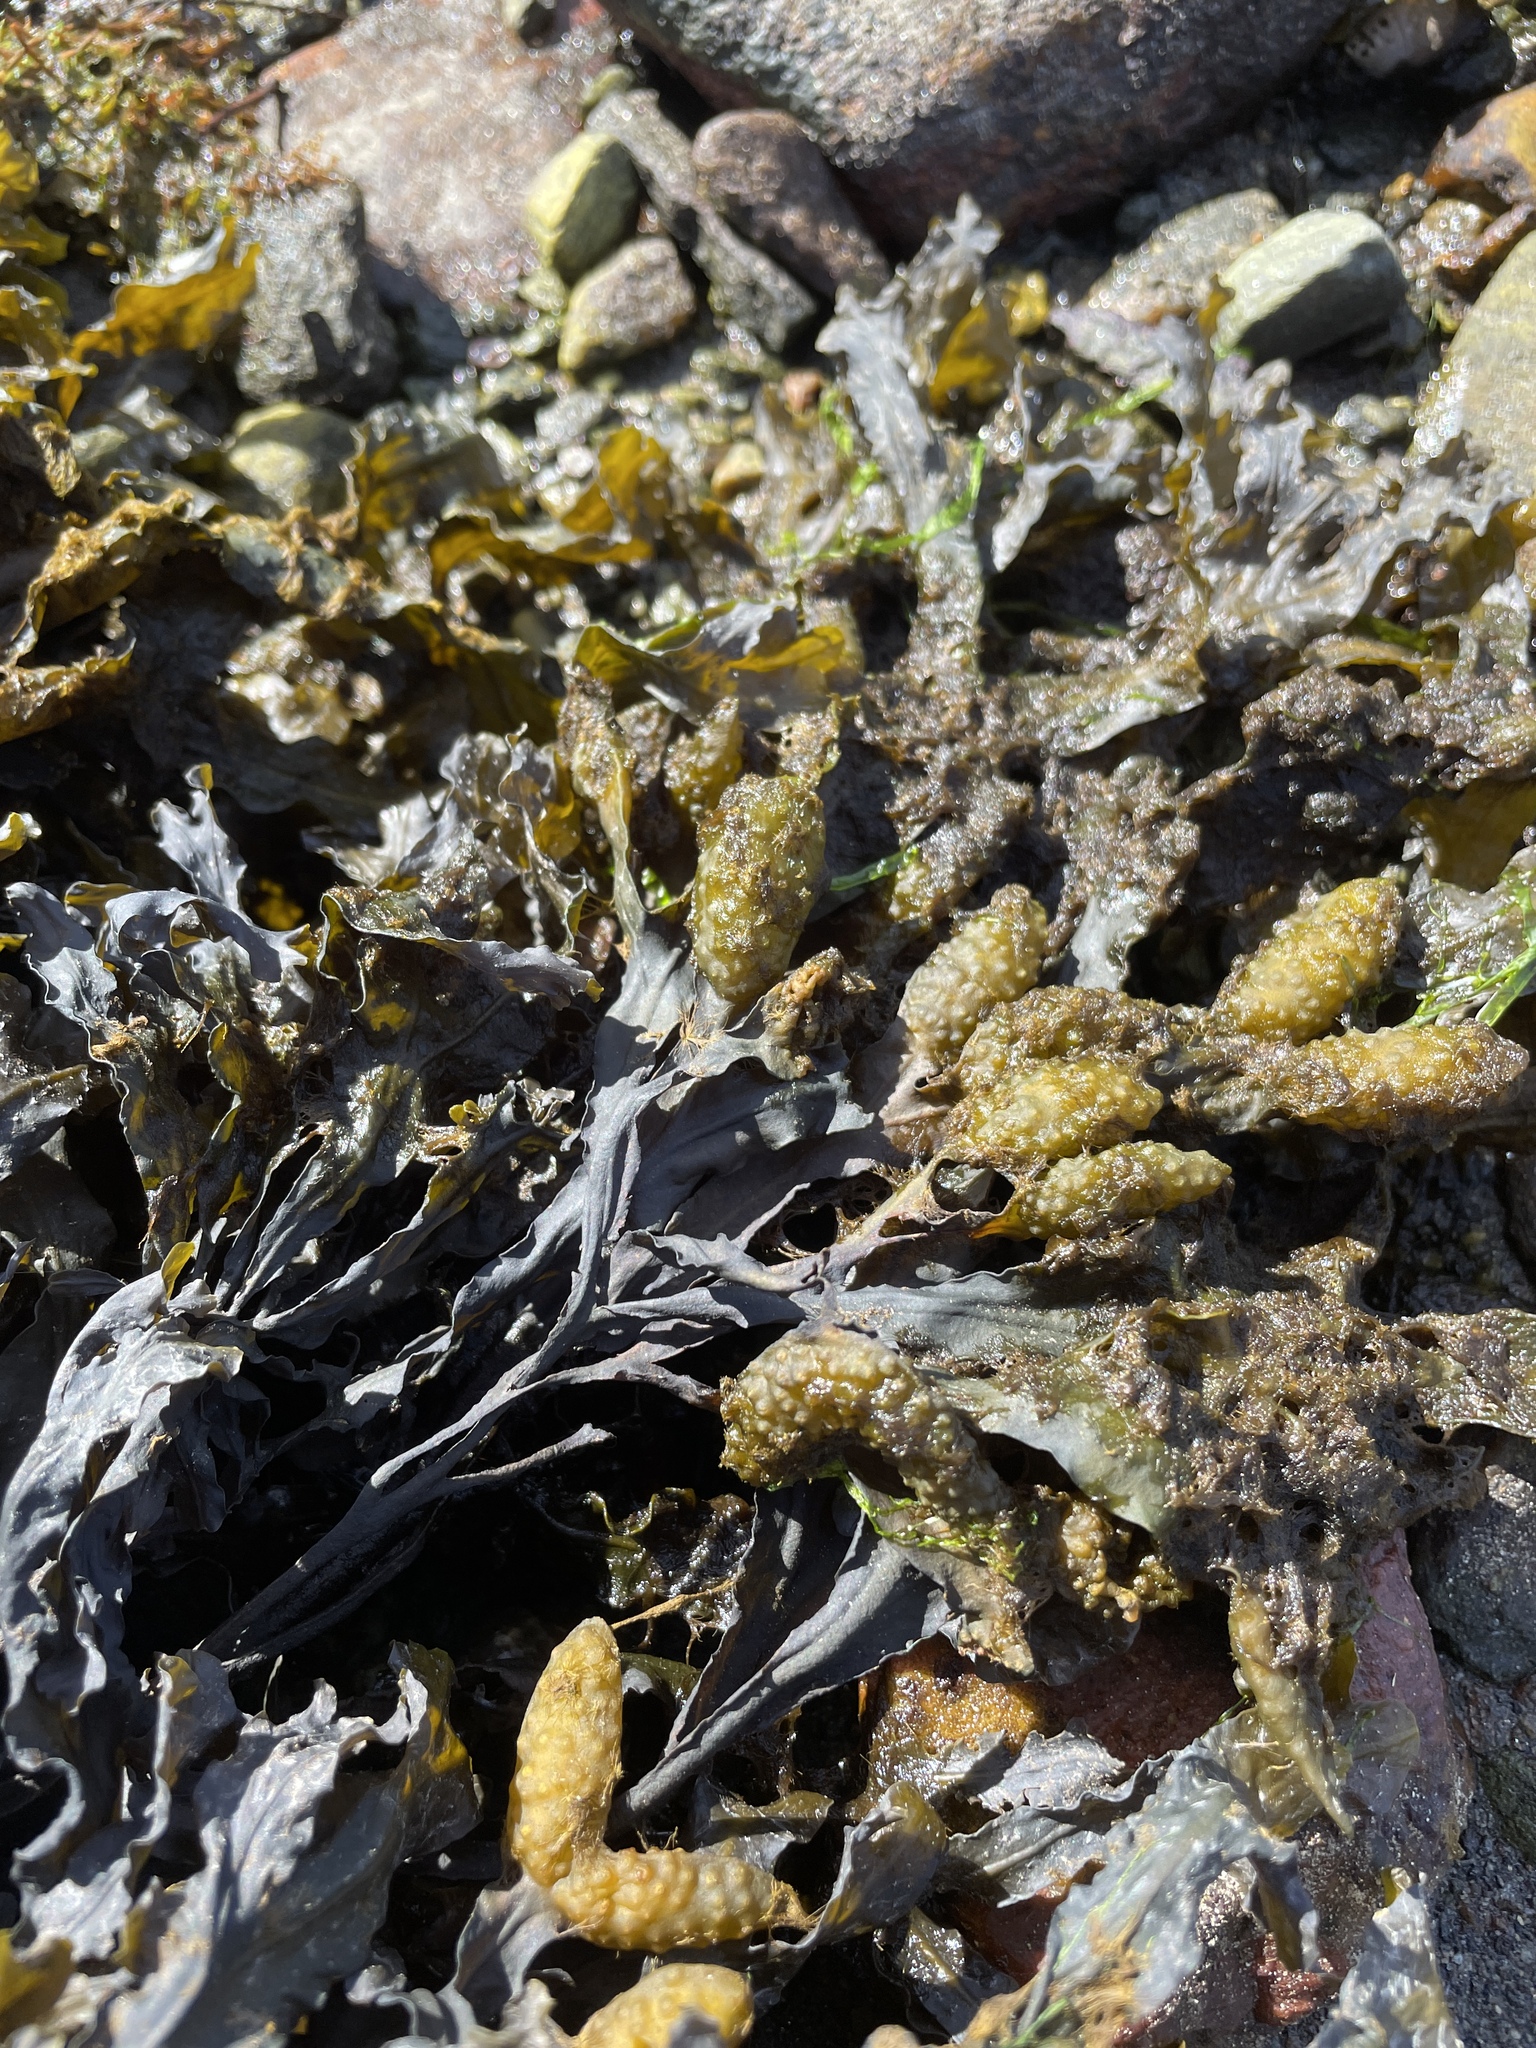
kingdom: Chromista
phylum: Ochrophyta
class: Phaeophyceae
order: Fucales
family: Fucaceae
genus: Fucus
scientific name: Fucus vesiculosus
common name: Bladder wrack
